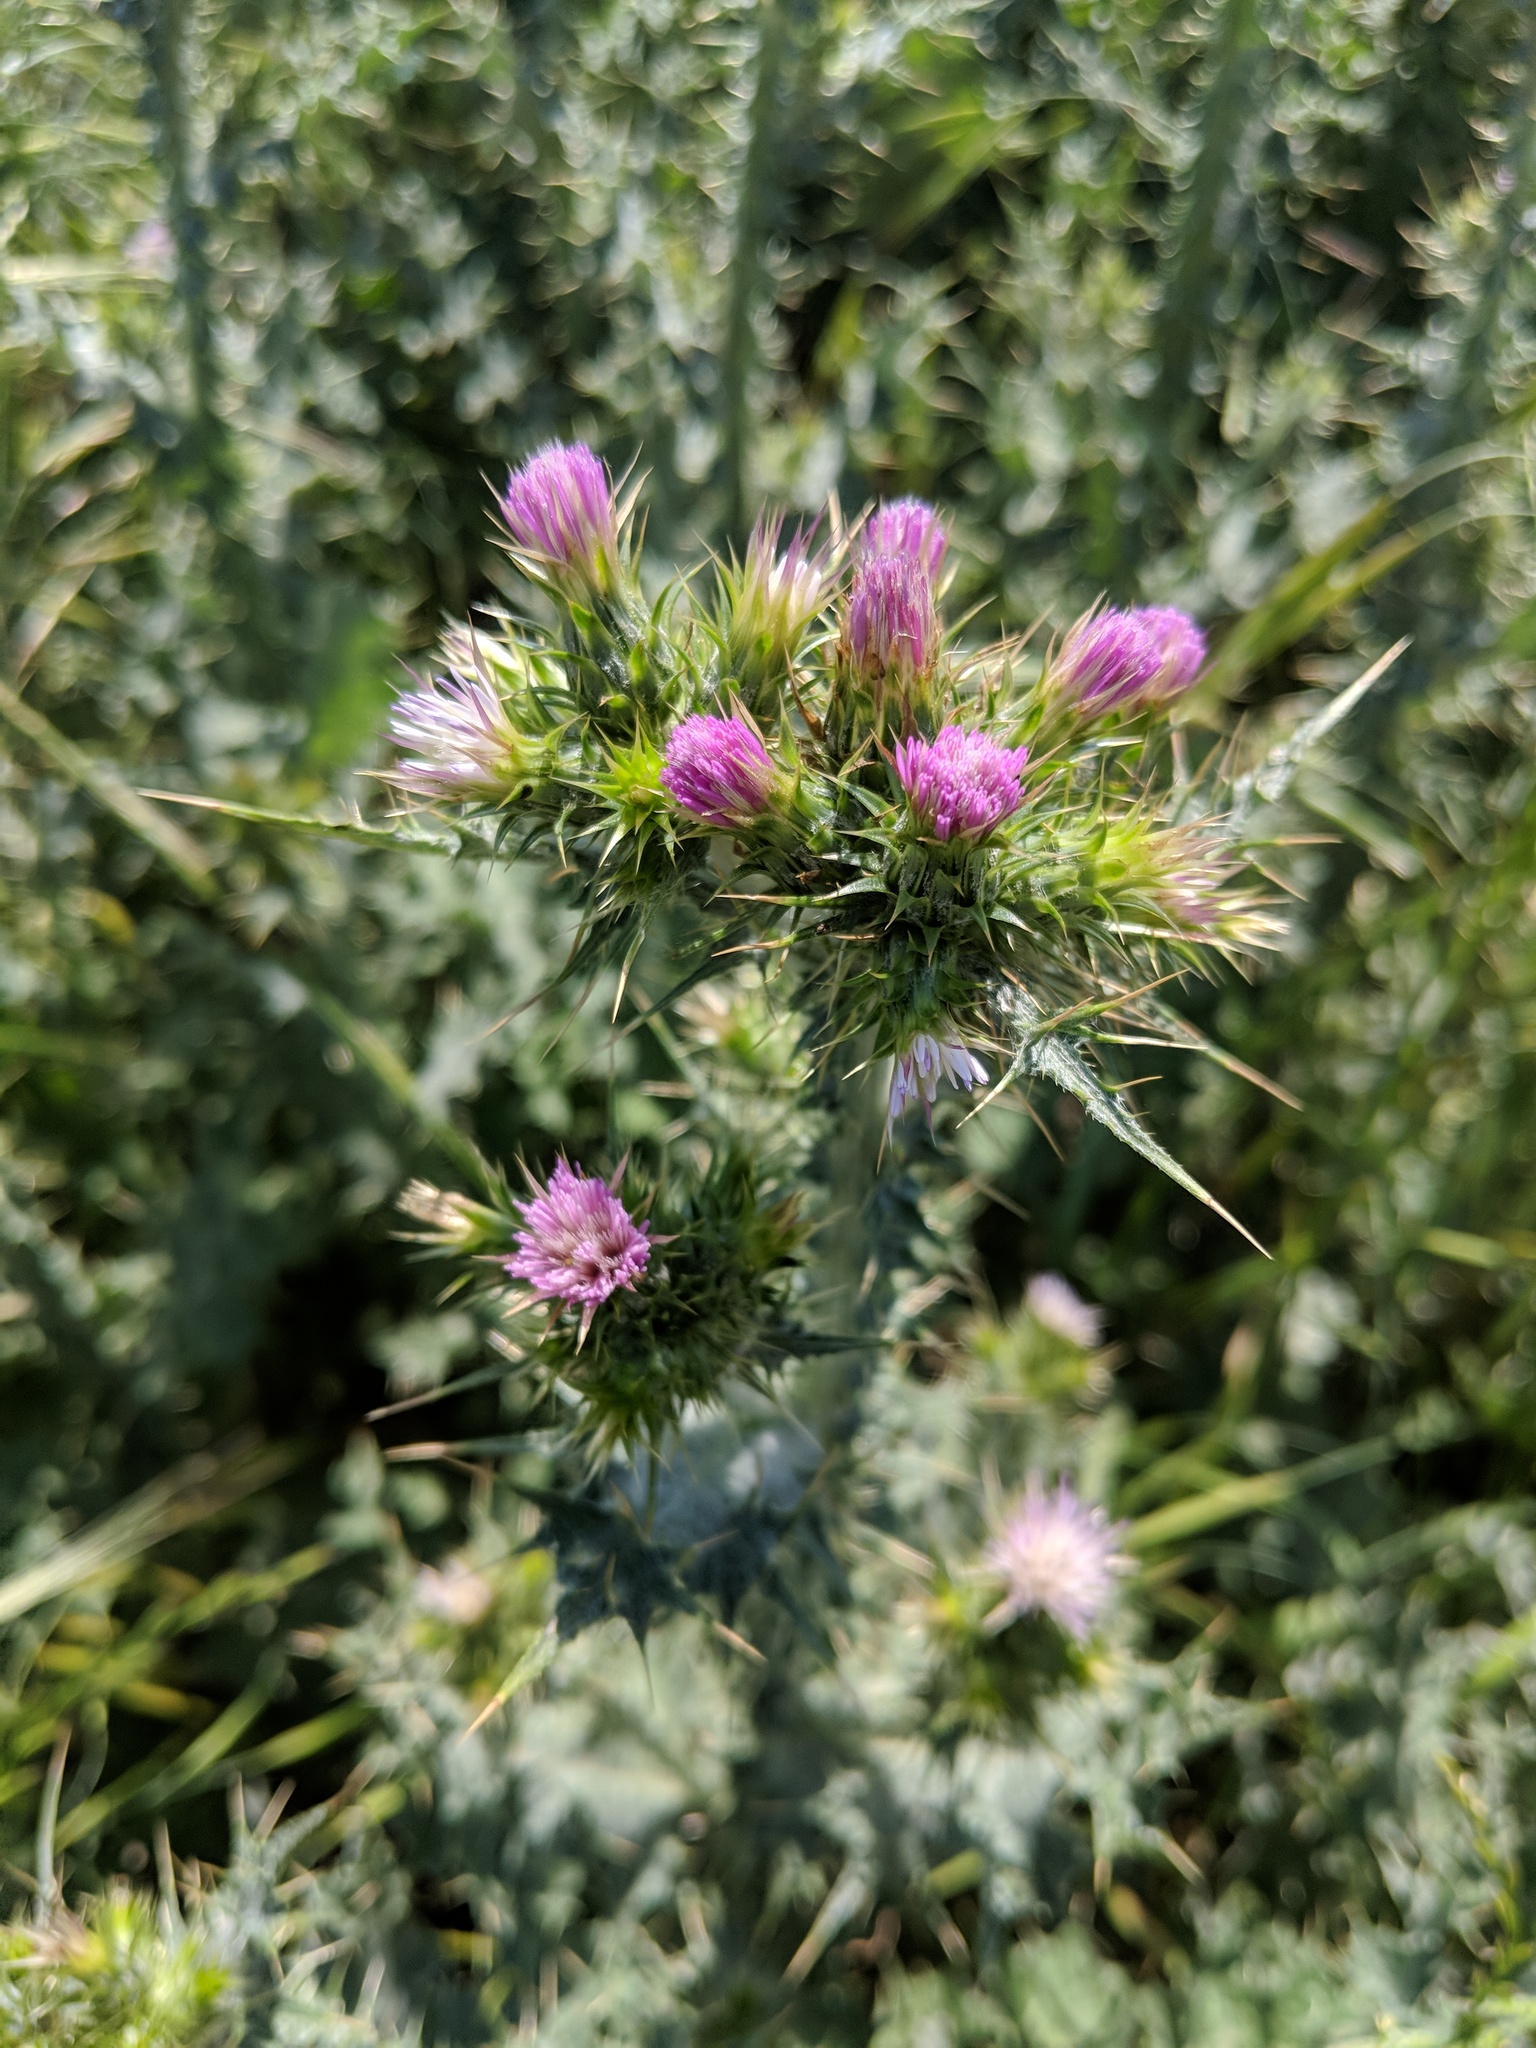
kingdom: Plantae
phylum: Tracheophyta
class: Magnoliopsida
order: Asterales
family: Asteraceae
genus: Carduus
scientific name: Carduus tenuiflorus
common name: Slender thistle
